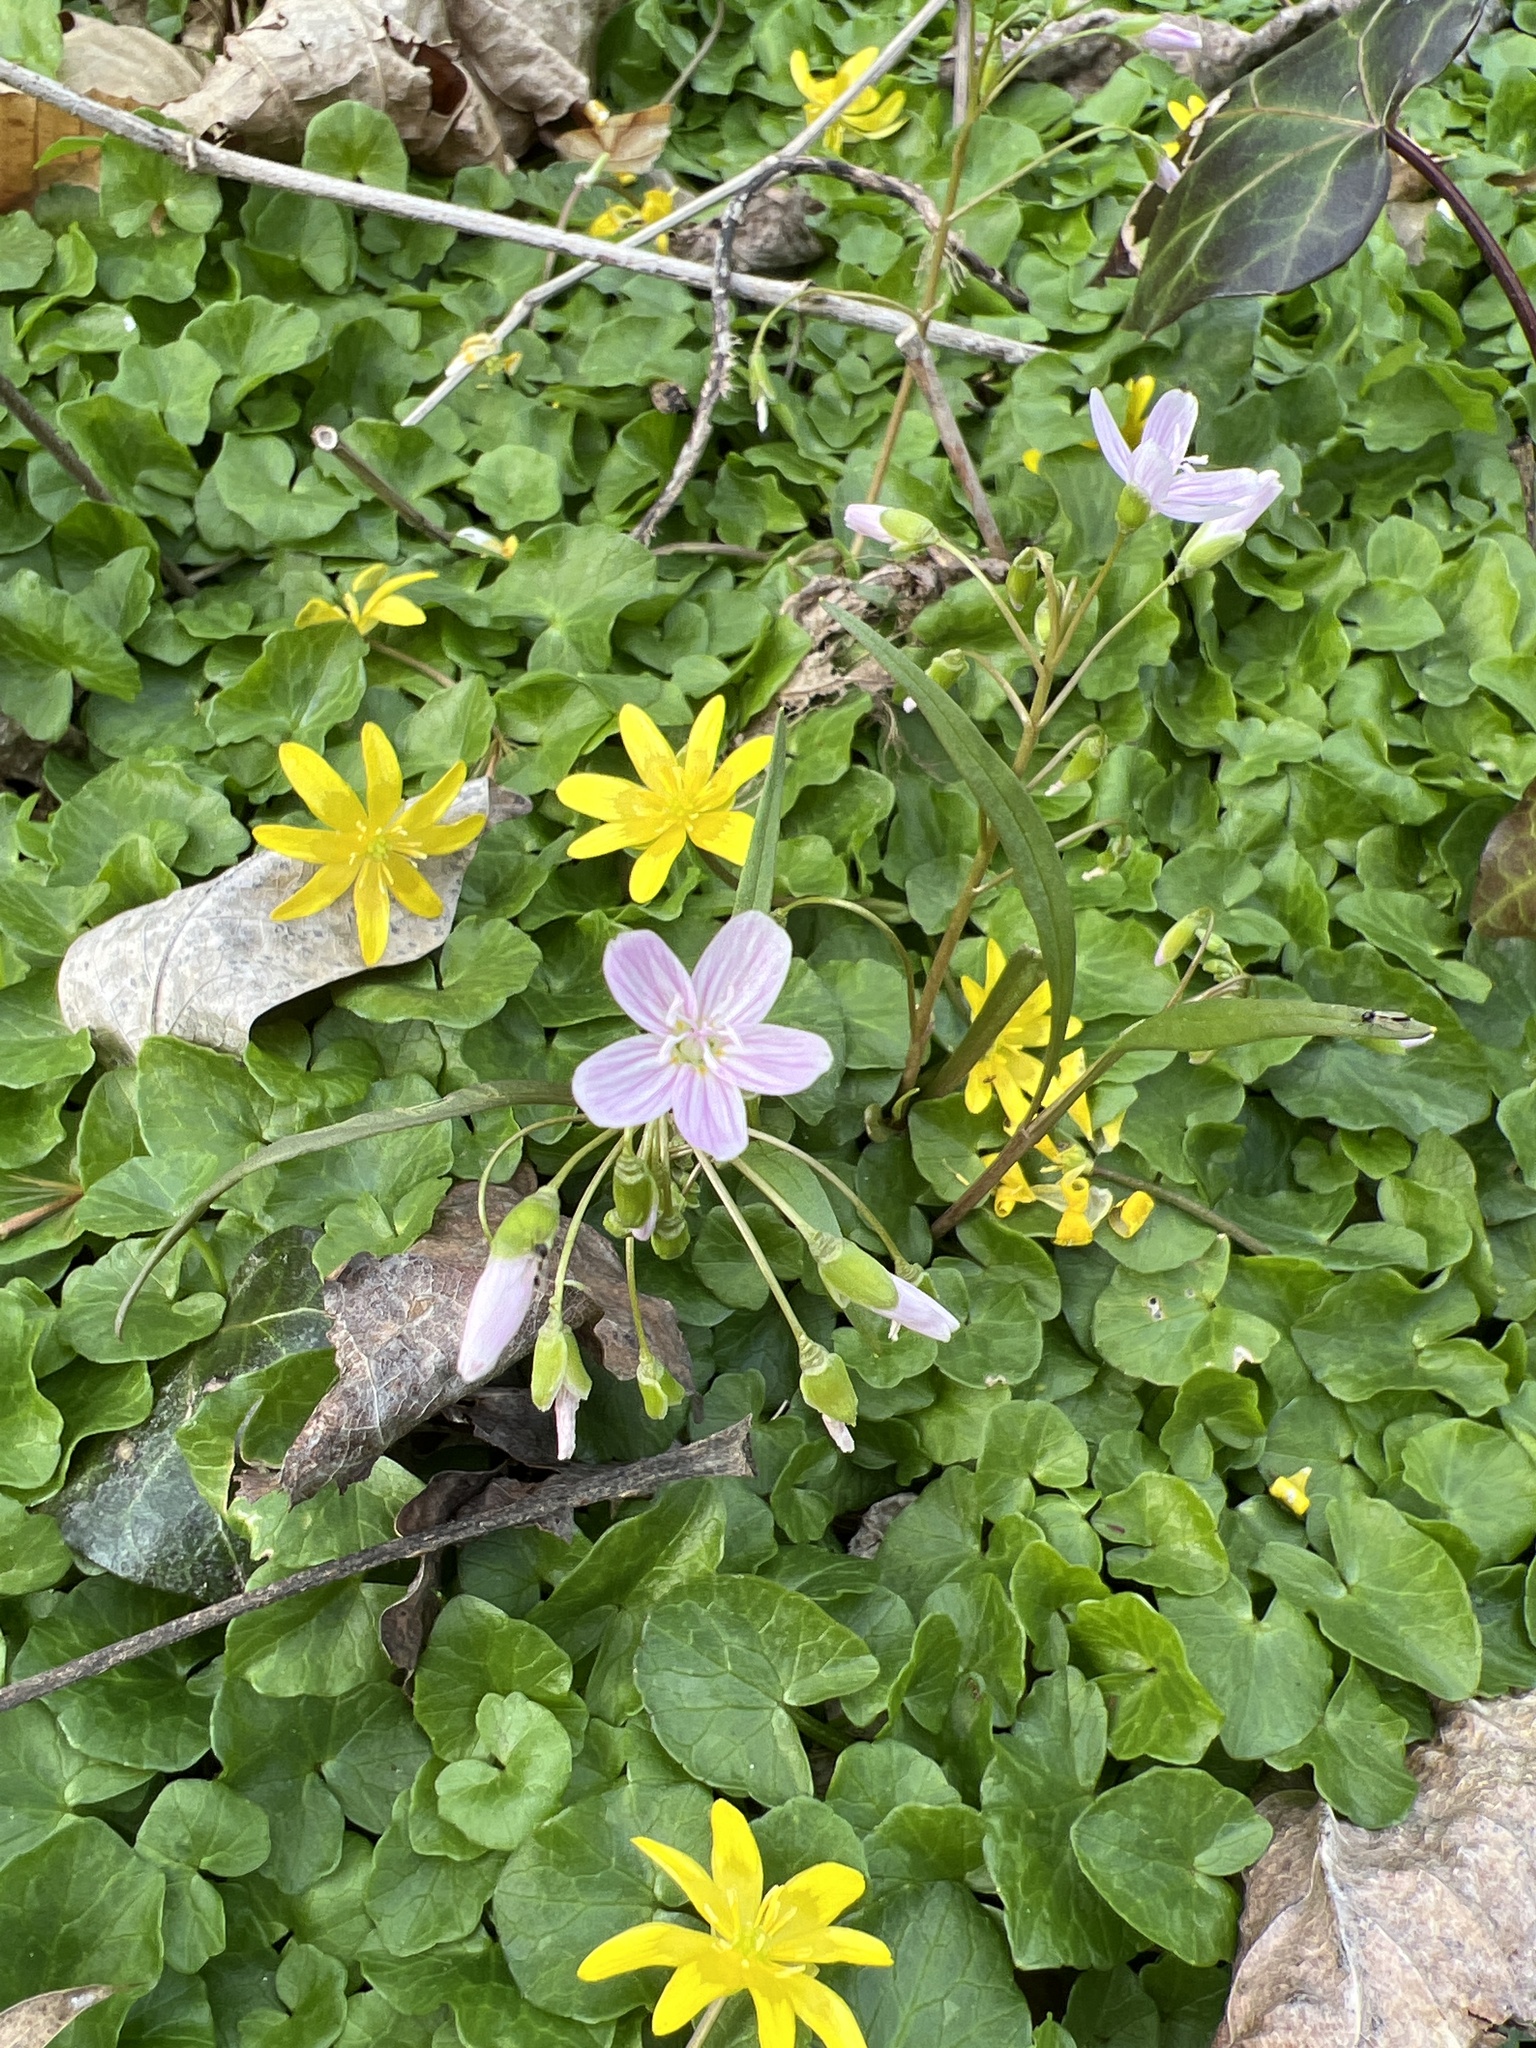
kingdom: Plantae
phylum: Tracheophyta
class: Magnoliopsida
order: Caryophyllales
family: Montiaceae
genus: Claytonia
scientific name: Claytonia virginica
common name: Virginia springbeauty
